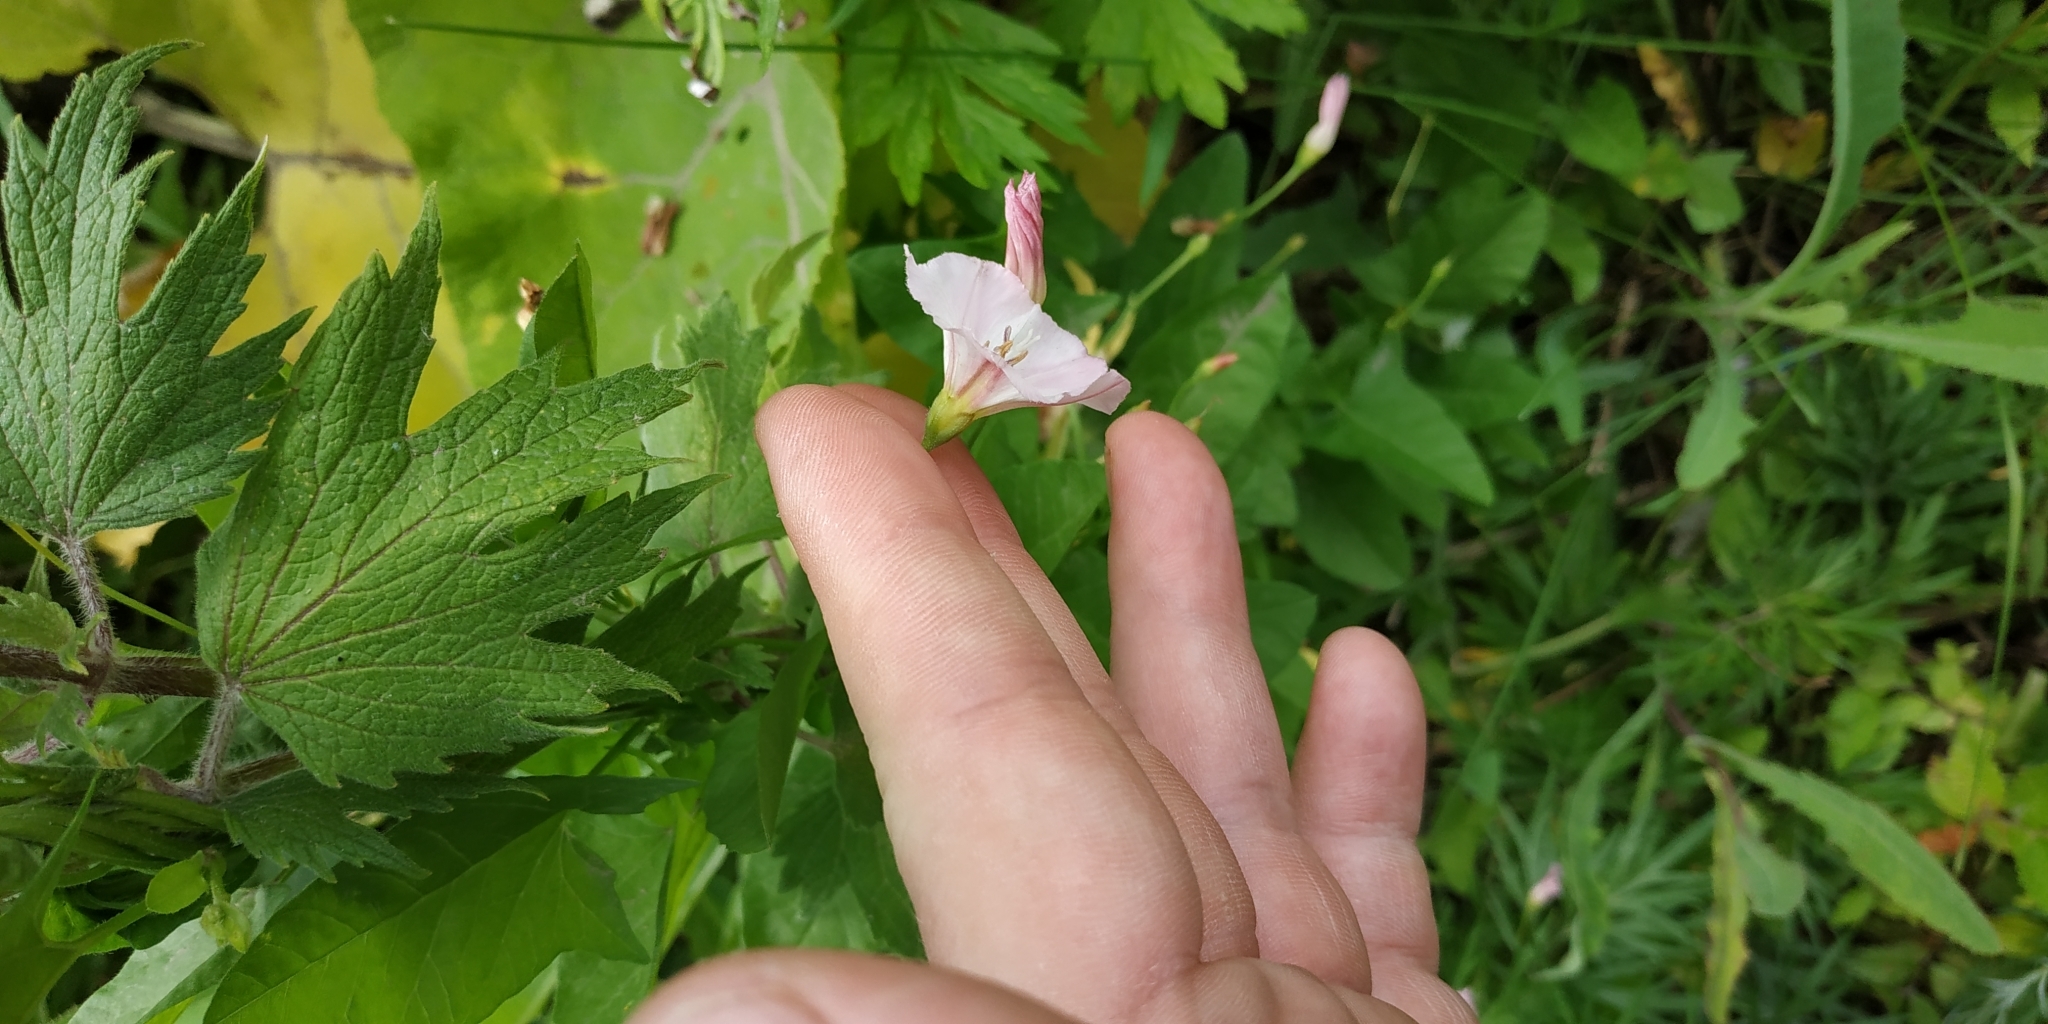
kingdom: Plantae
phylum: Tracheophyta
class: Magnoliopsida
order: Solanales
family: Convolvulaceae
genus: Convolvulus
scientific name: Convolvulus arvensis
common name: Field bindweed
